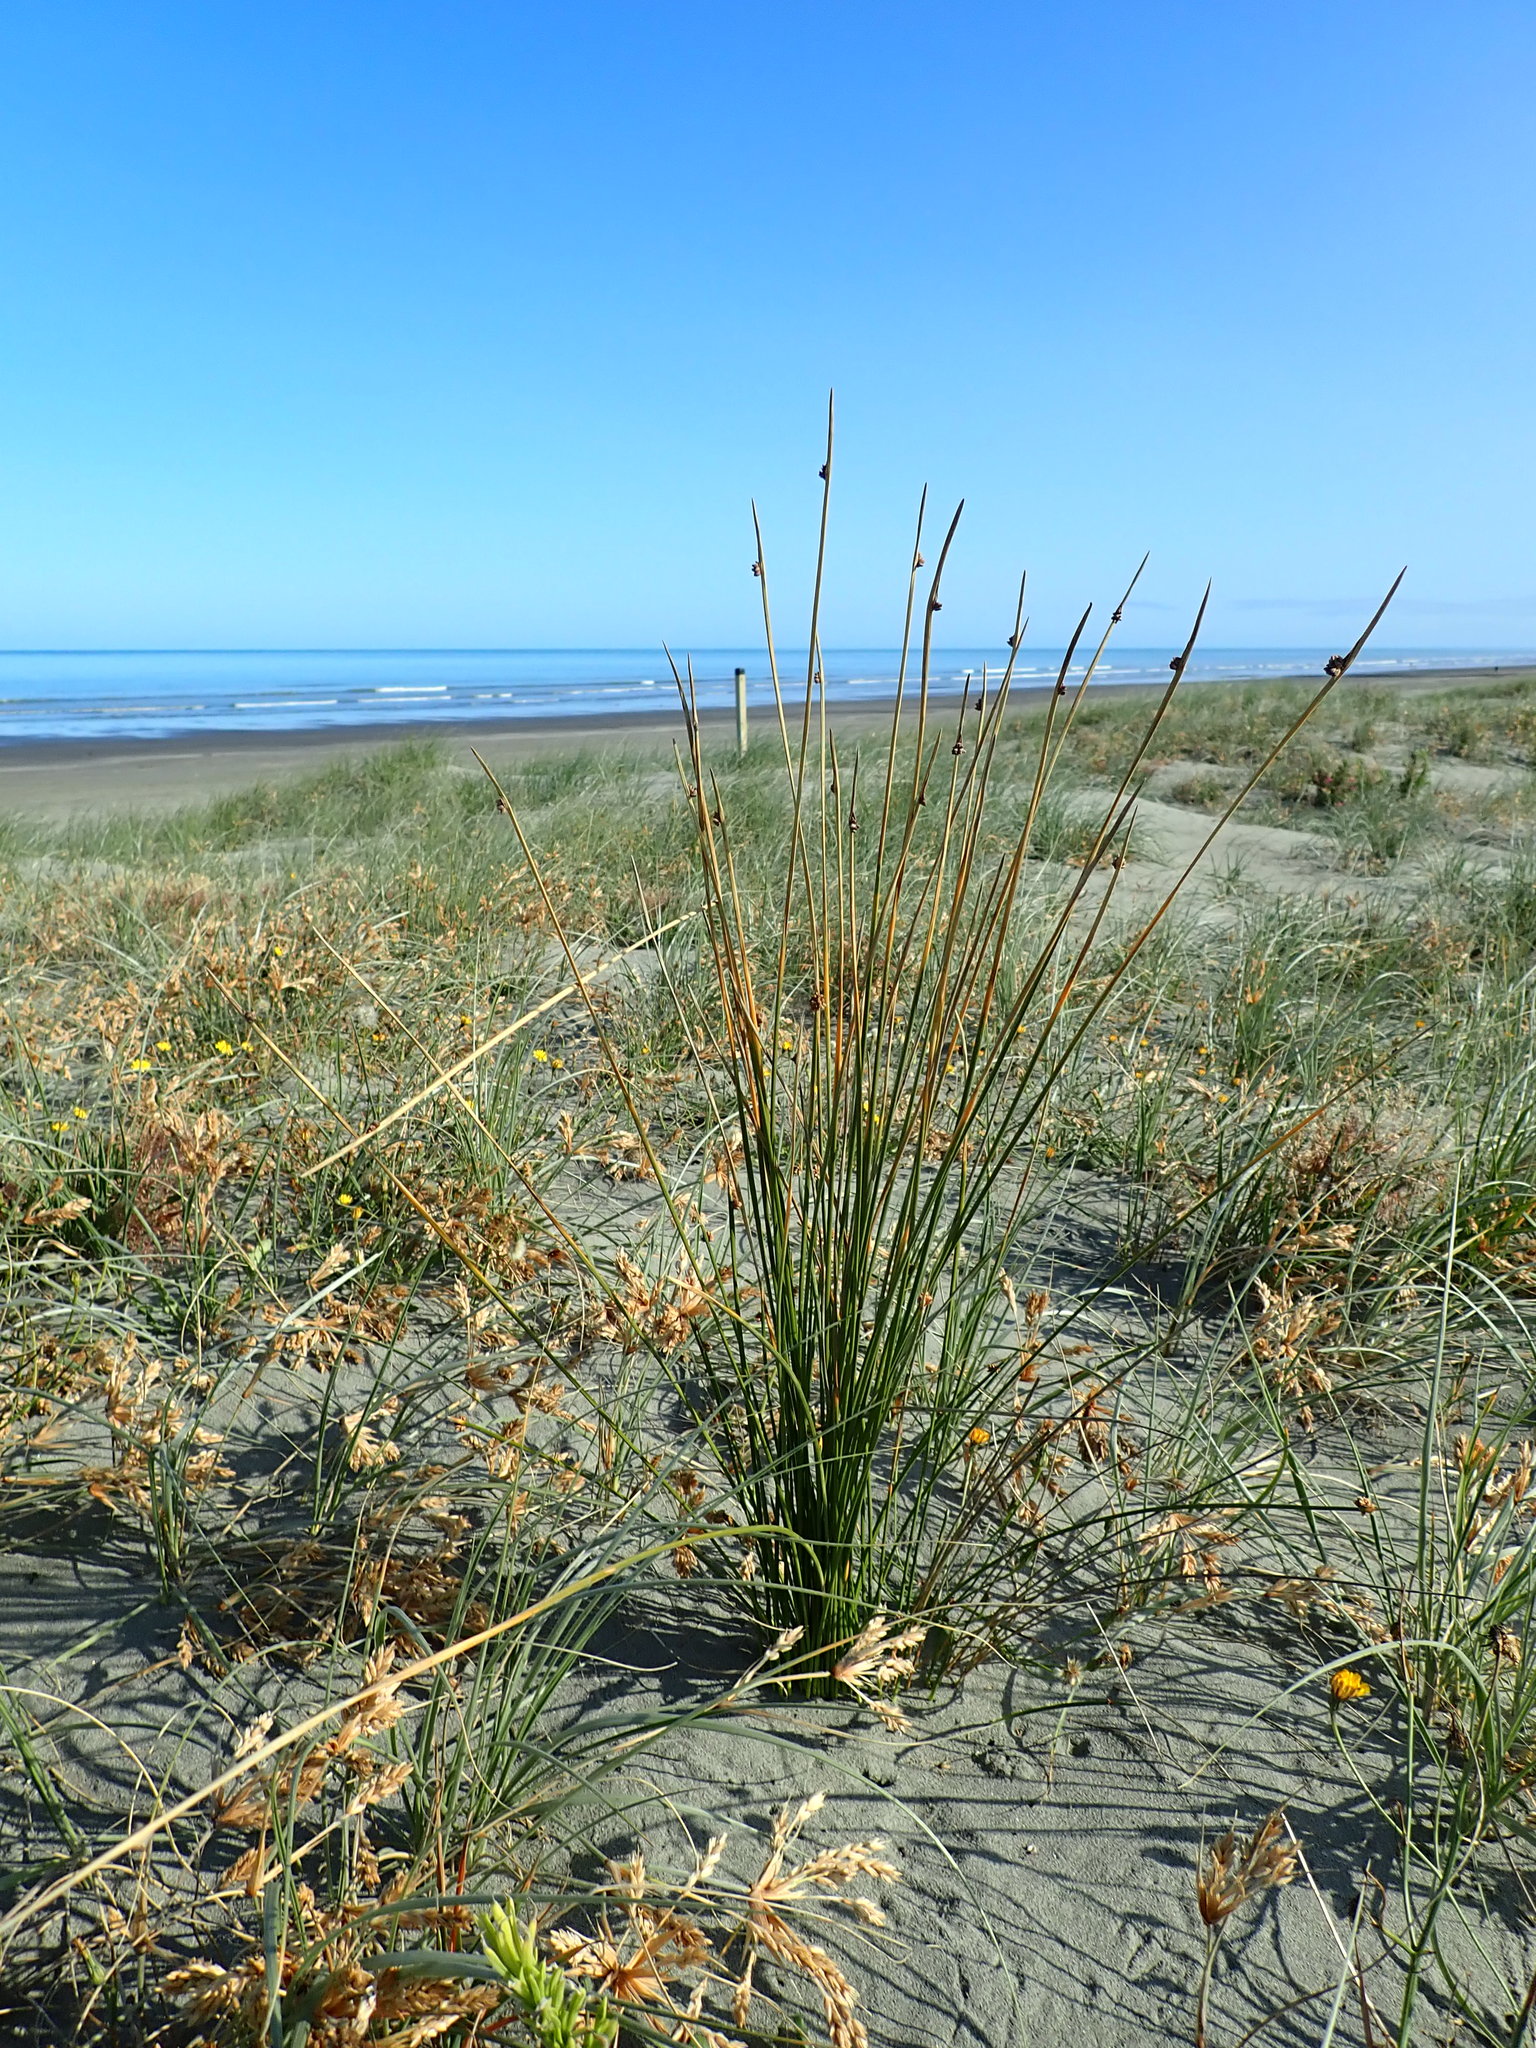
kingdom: Plantae
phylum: Tracheophyta
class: Liliopsida
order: Poales
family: Cyperaceae
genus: Ficinia
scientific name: Ficinia nodosa
